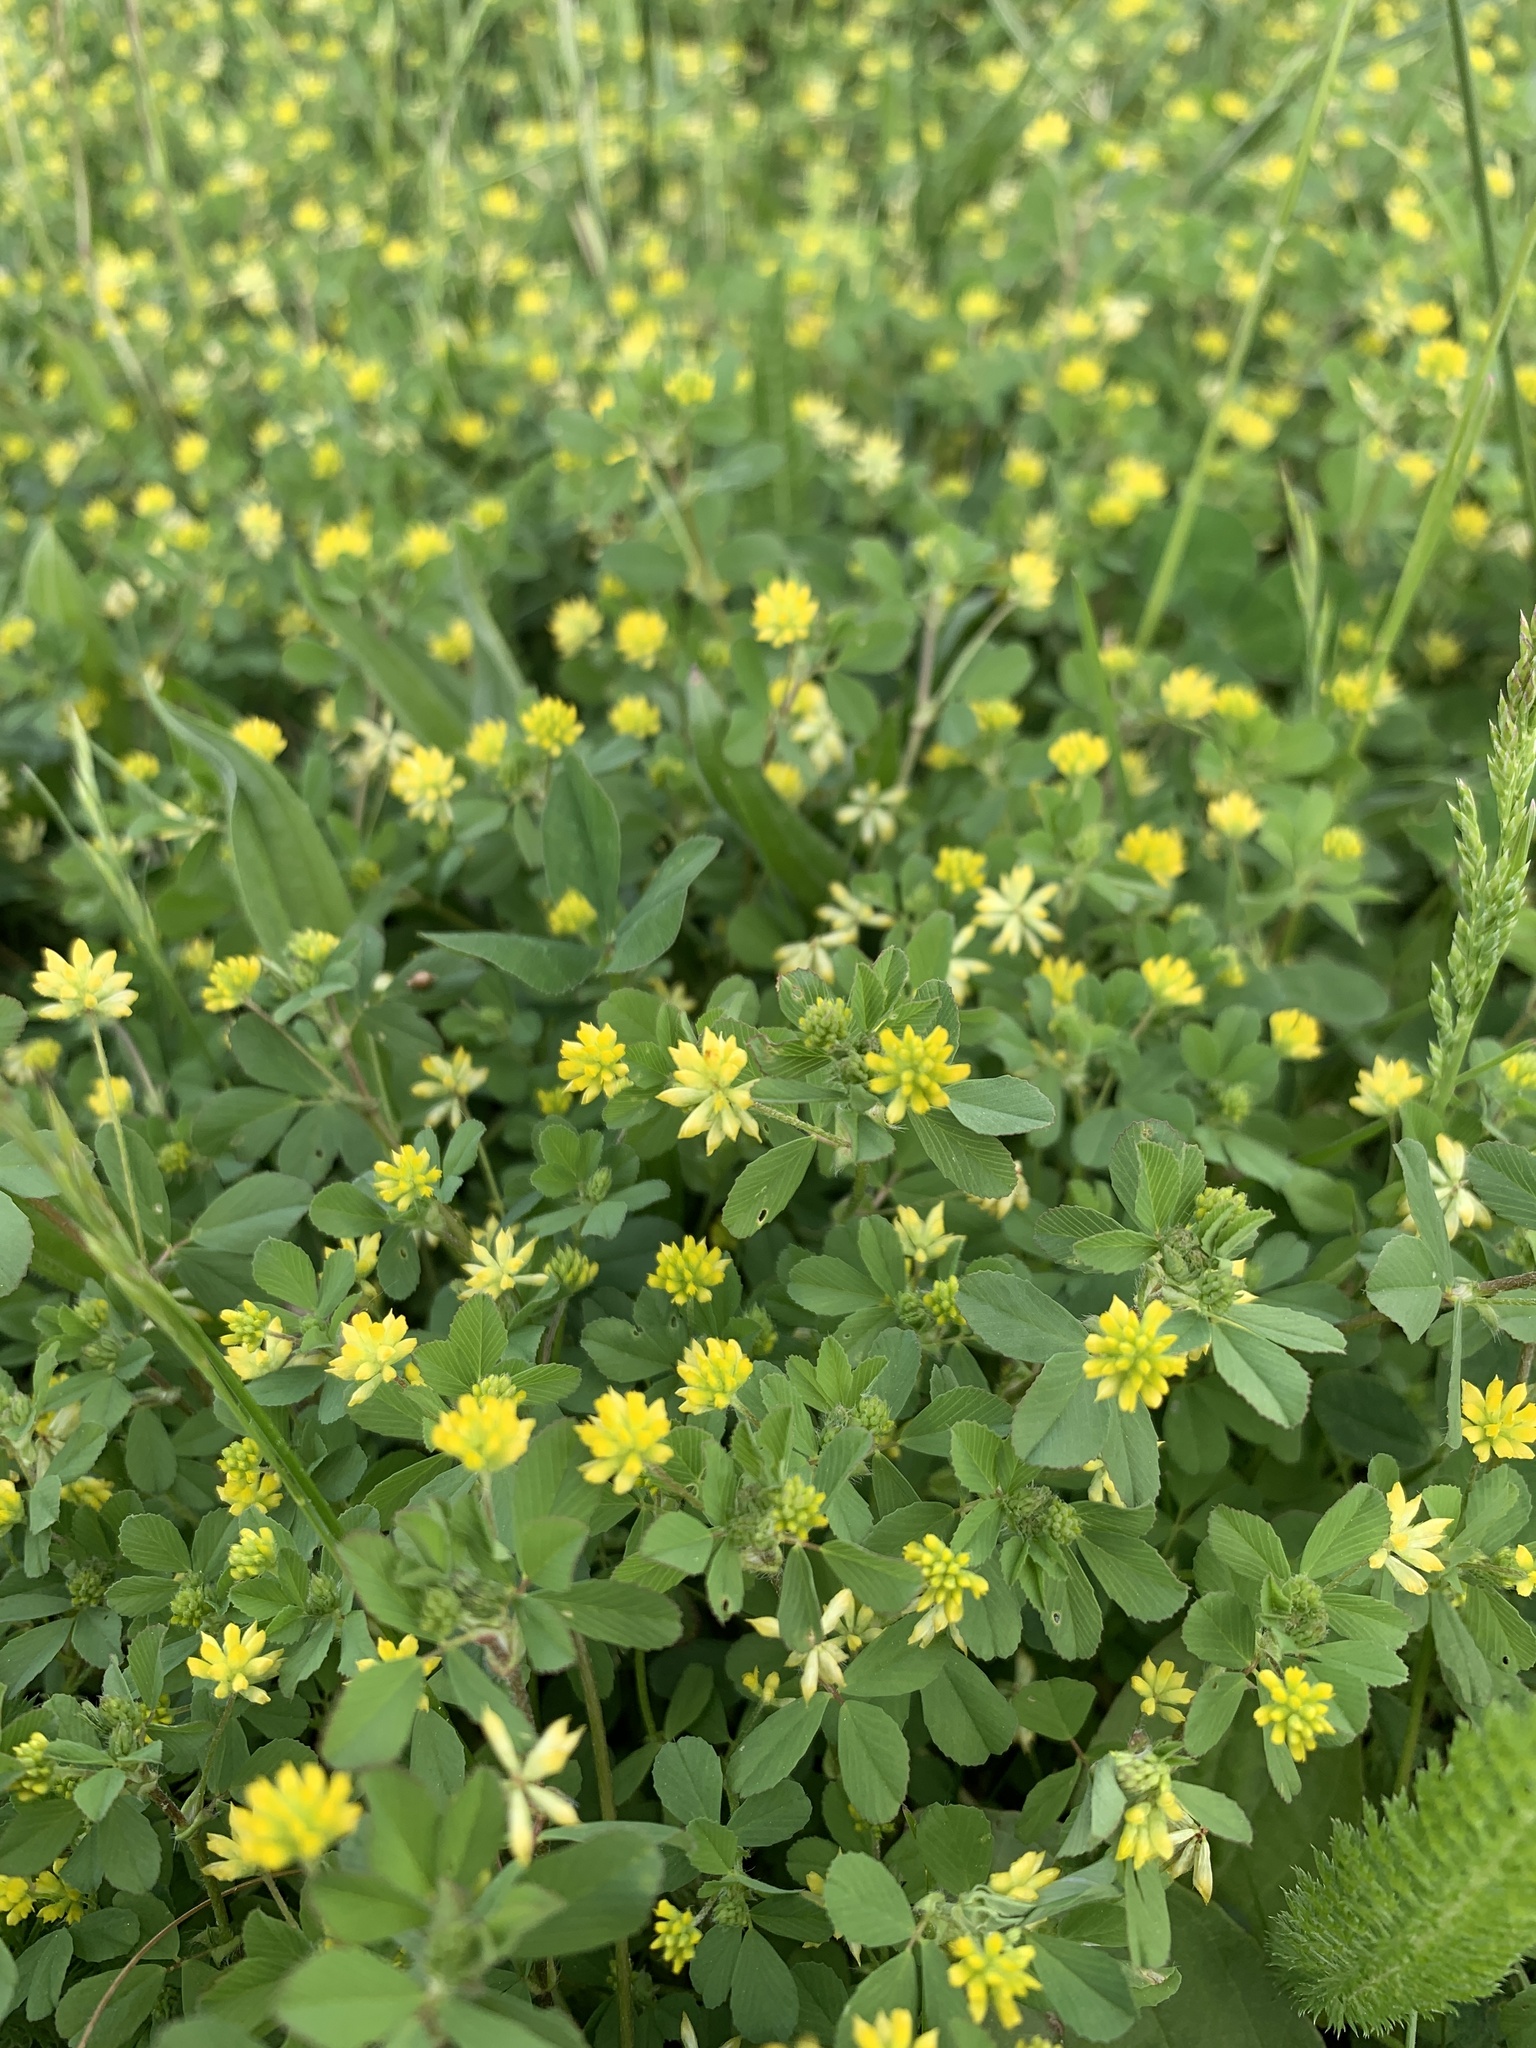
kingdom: Plantae
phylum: Tracheophyta
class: Magnoliopsida
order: Fabales
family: Fabaceae
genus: Trifolium
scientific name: Trifolium dubium
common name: Suckling clover
